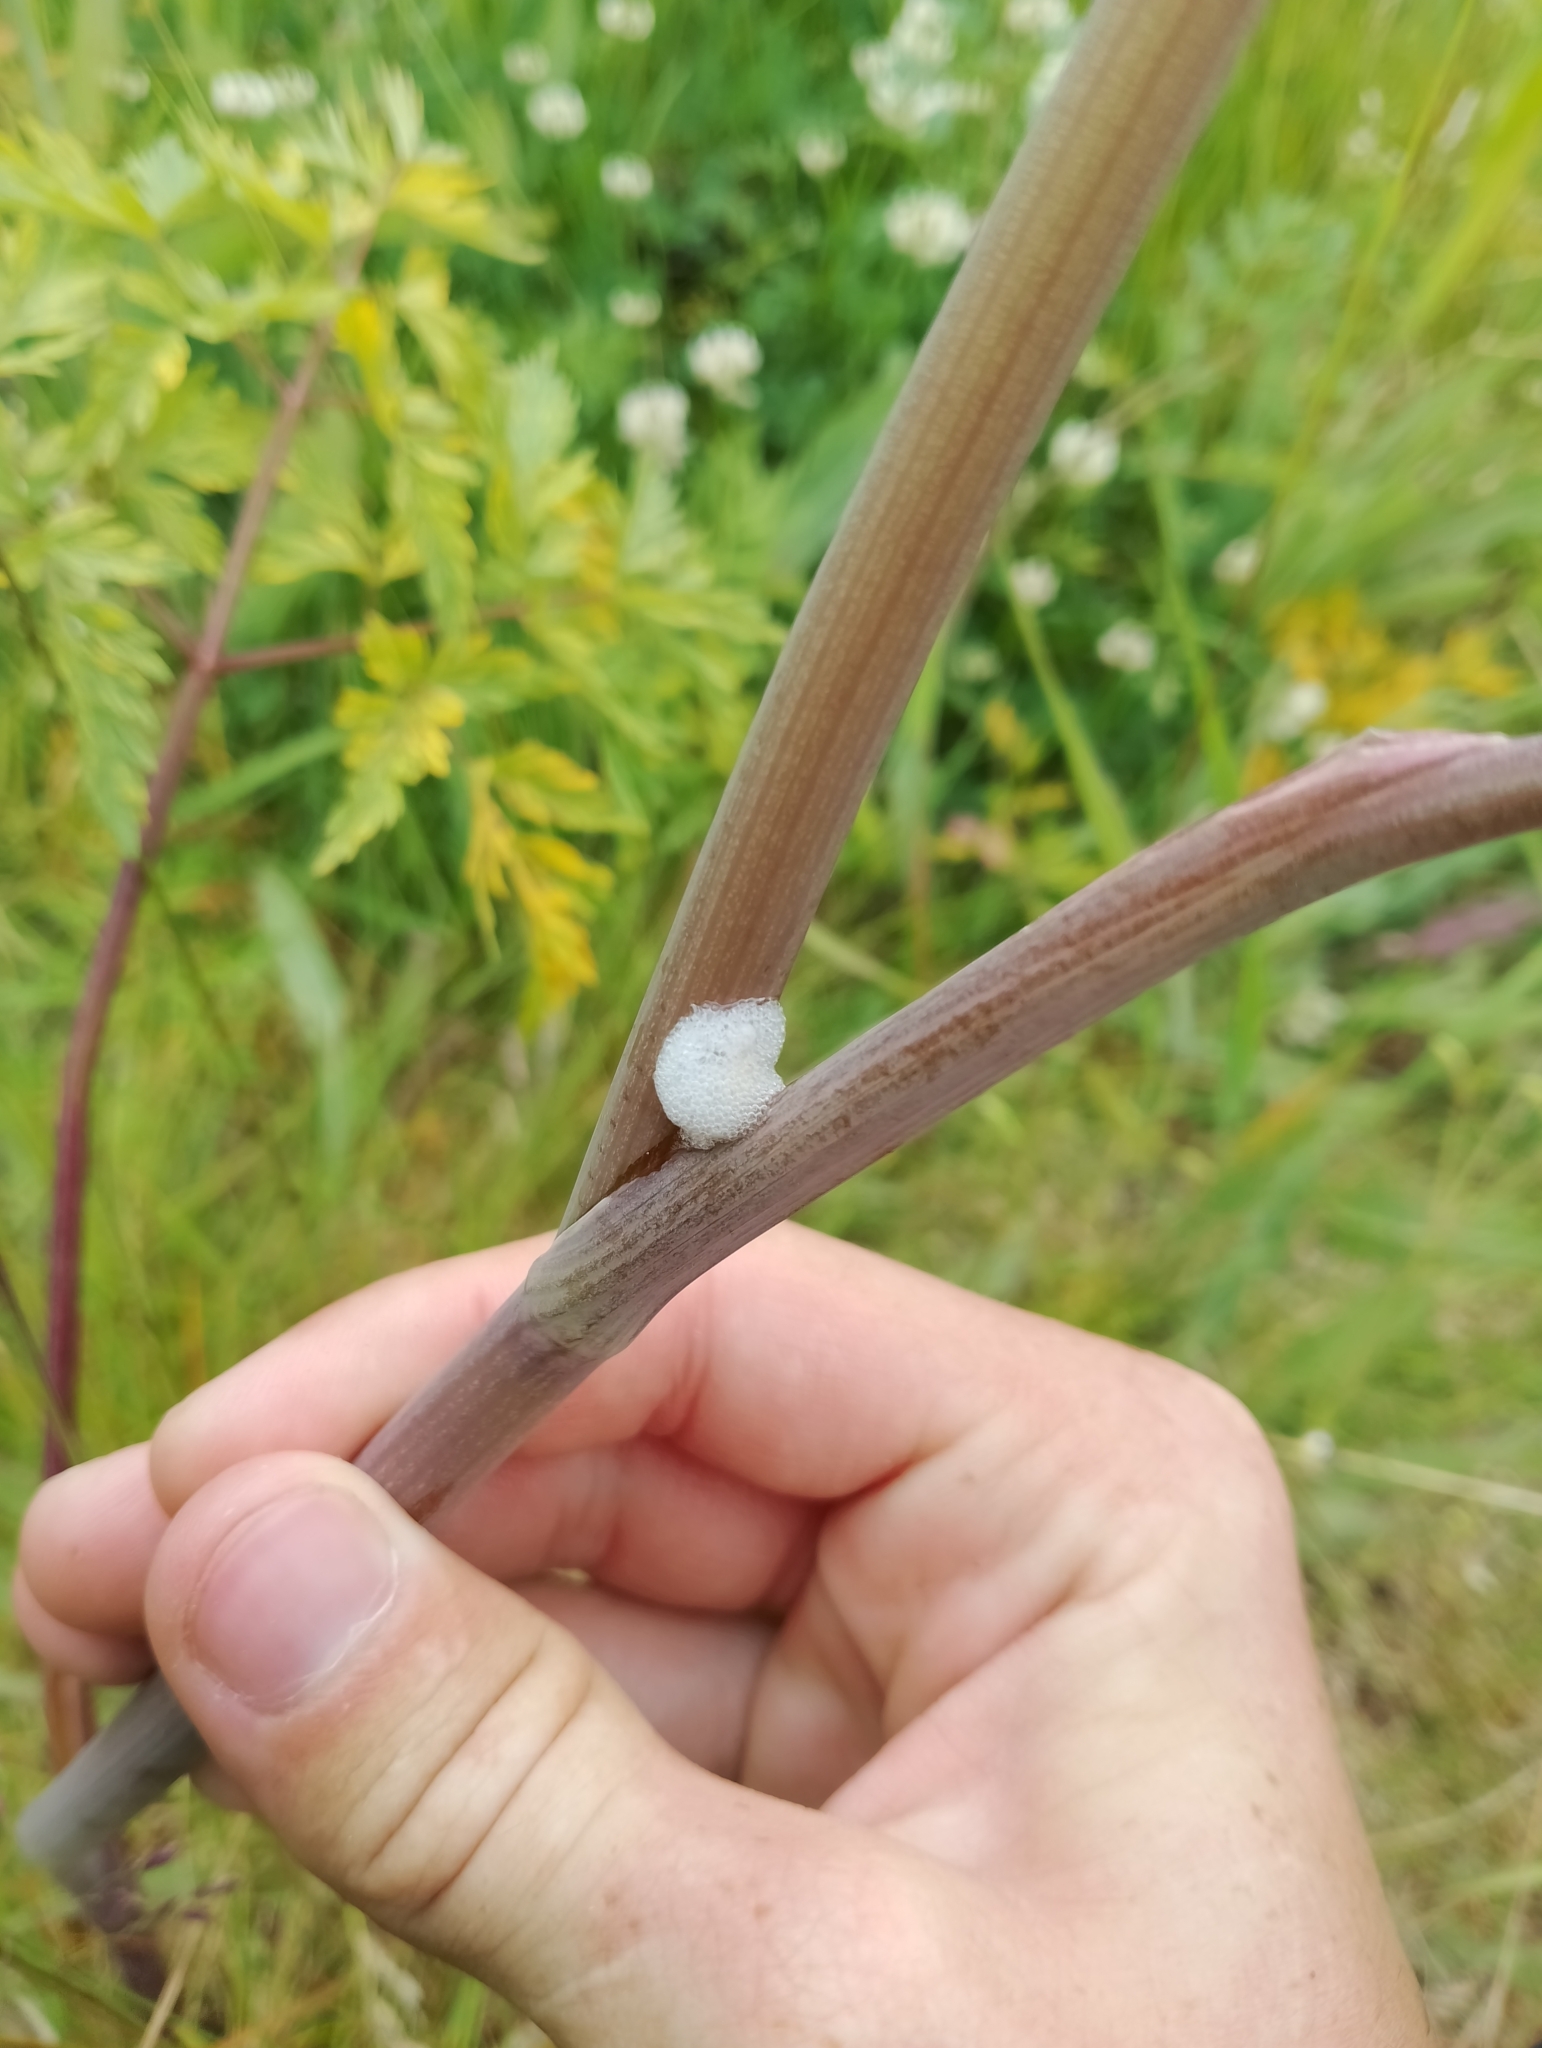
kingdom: Plantae
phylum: Tracheophyta
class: Magnoliopsida
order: Apiales
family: Apiaceae
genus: Conioselinum
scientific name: Conioselinum tataricum
